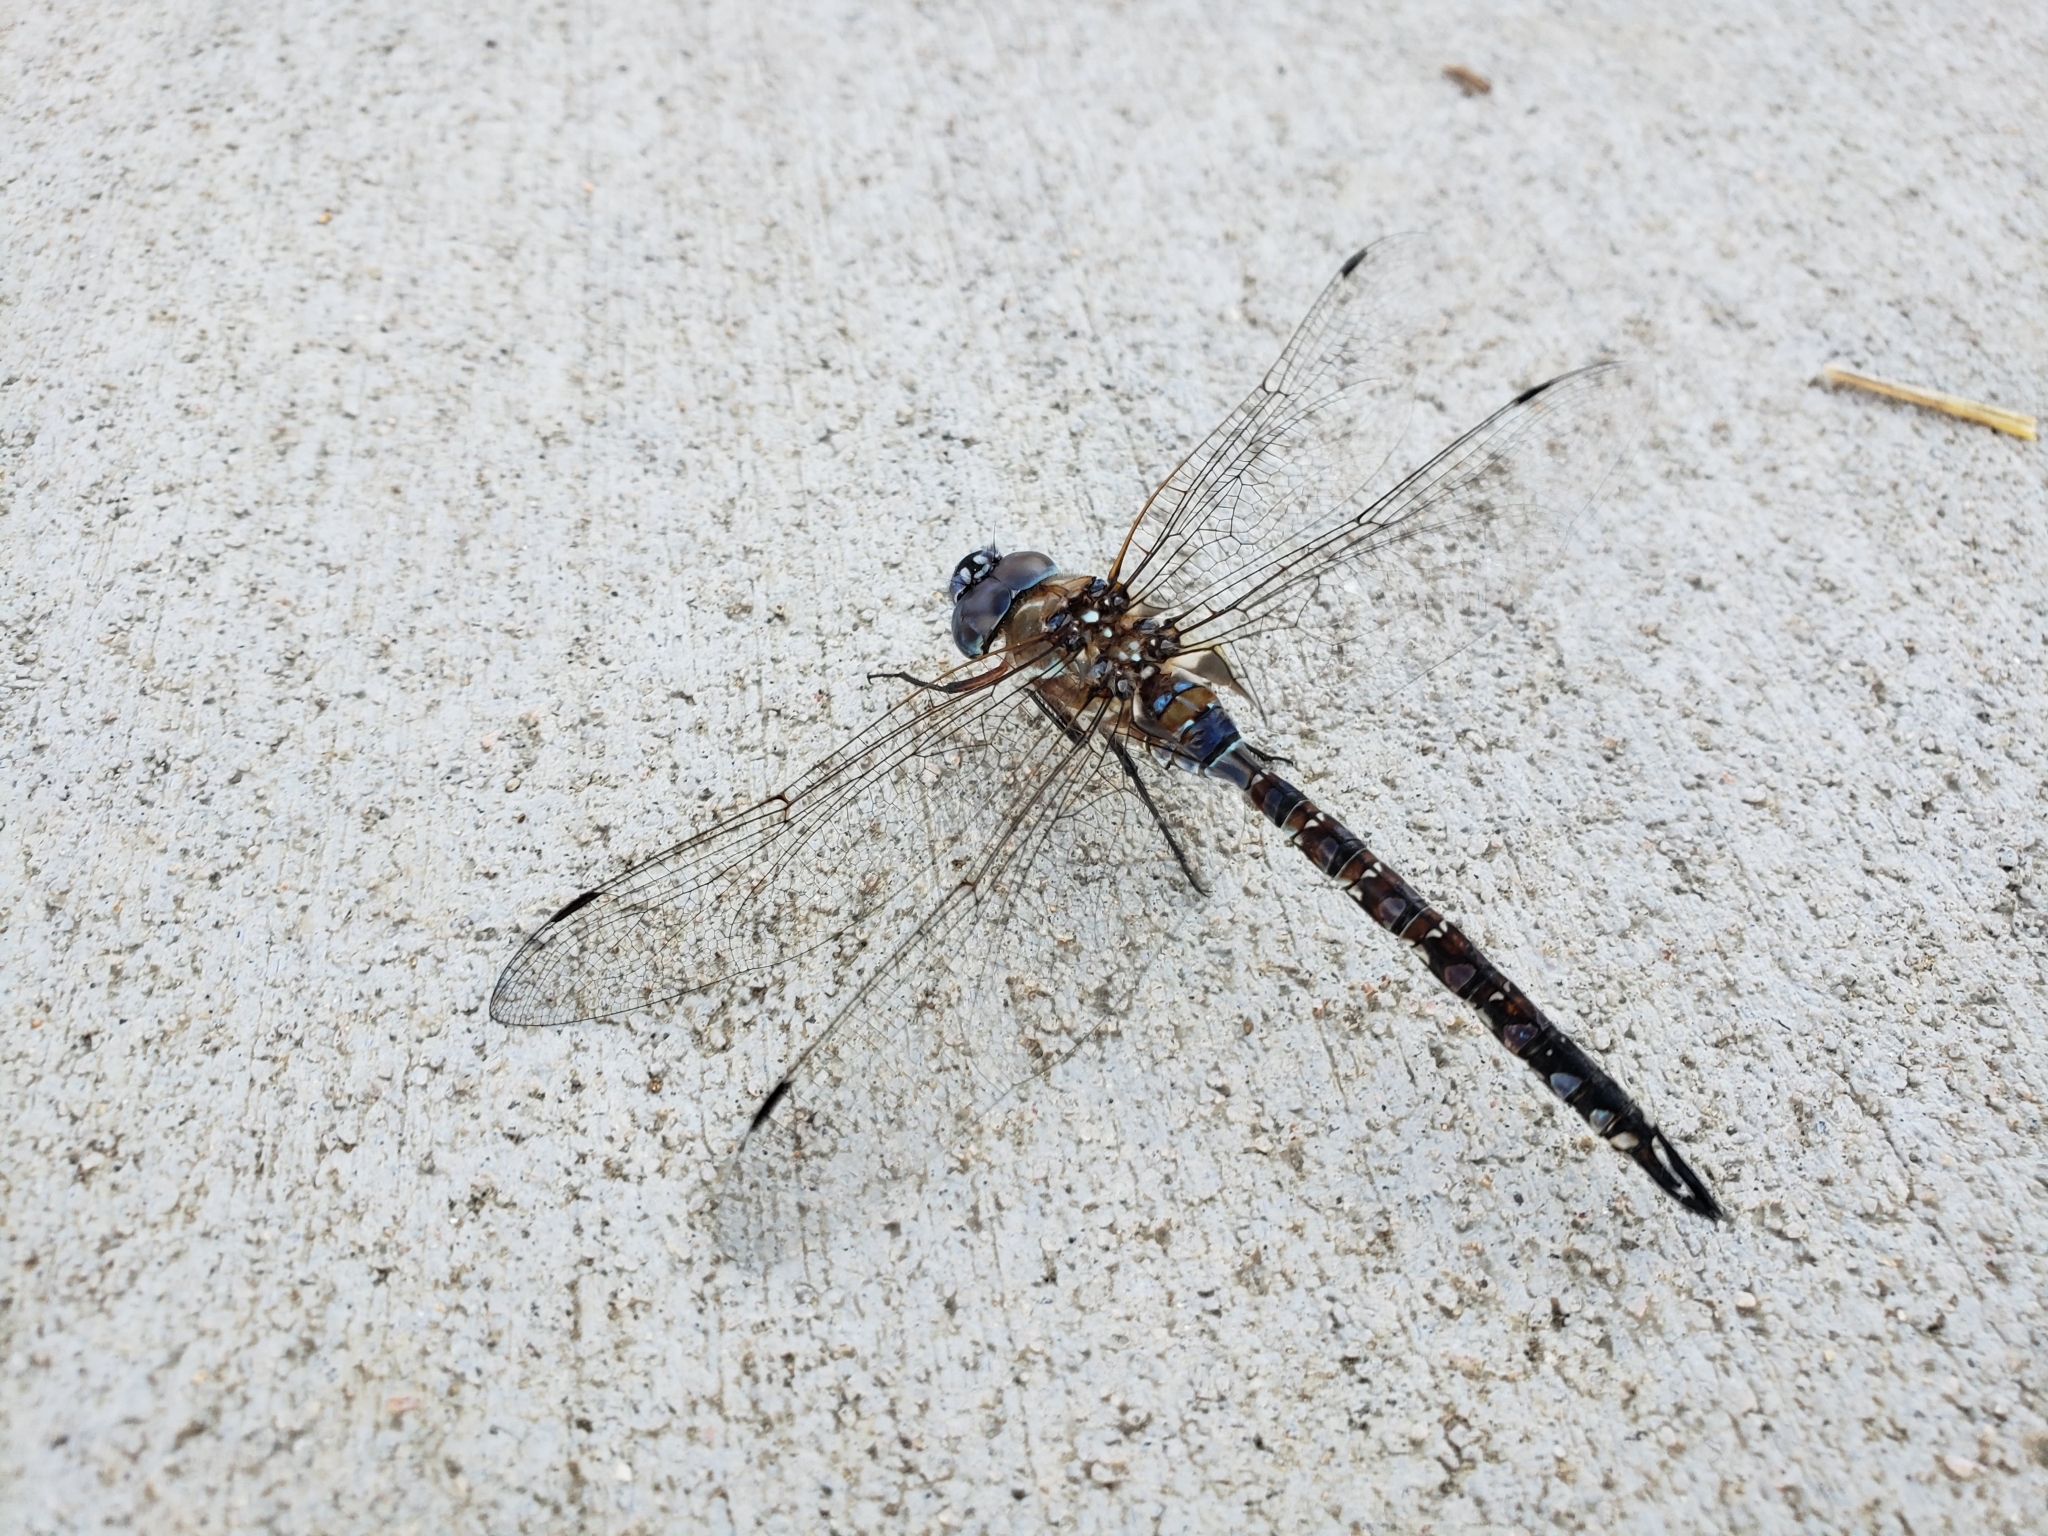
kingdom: Animalia
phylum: Arthropoda
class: Insecta
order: Odonata
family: Aeshnidae
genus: Rhionaeschna
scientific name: Rhionaeschna multicolor
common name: Blue-eyed darner
